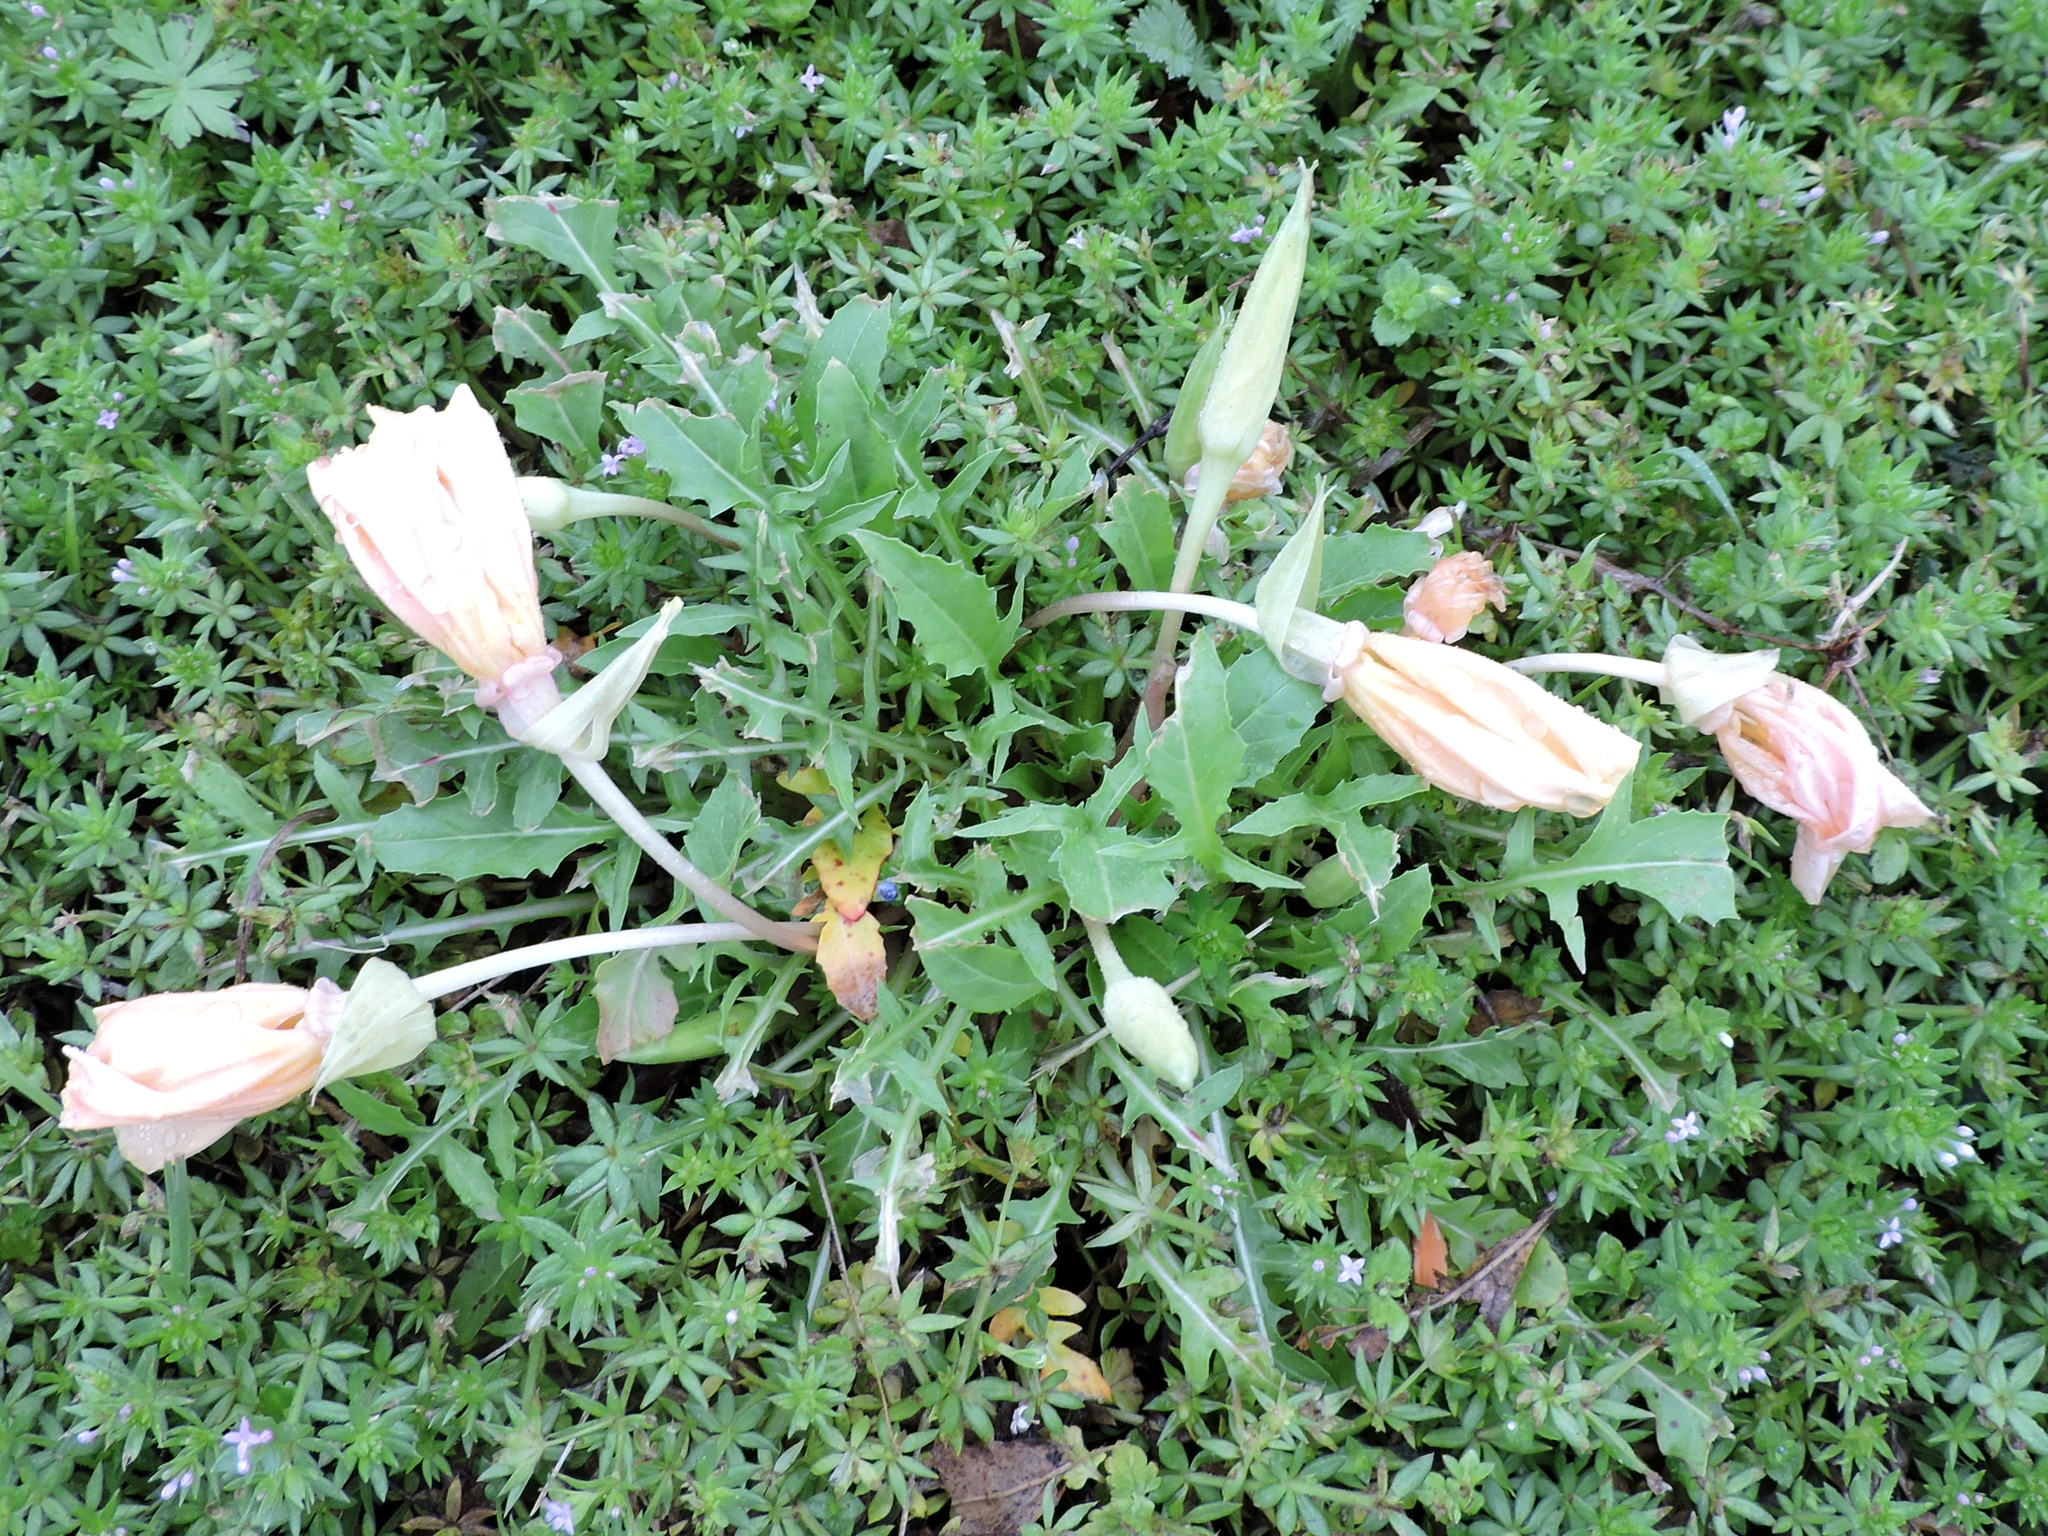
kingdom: Plantae
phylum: Tracheophyta
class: Magnoliopsida
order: Myrtales
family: Onagraceae
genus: Oenothera
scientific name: Oenothera triloba
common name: Sessile evening-primrose
